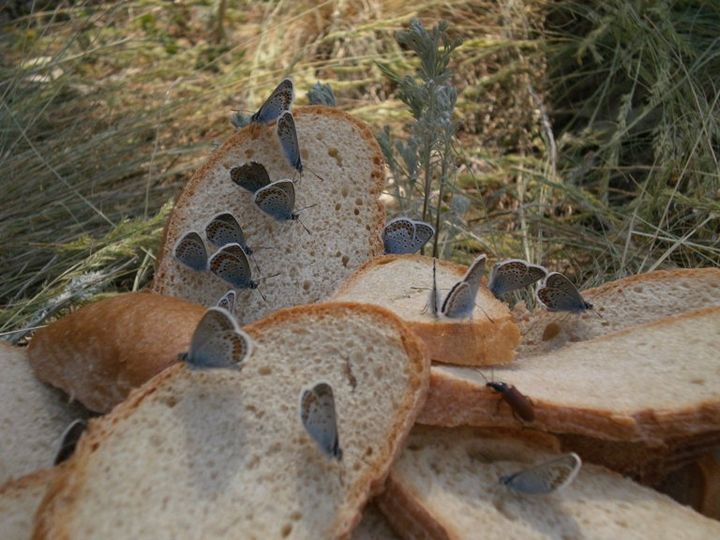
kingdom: Animalia
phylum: Arthropoda
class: Insecta
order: Lepidoptera
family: Lycaenidae
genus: Plebejus
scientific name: Plebejus argus
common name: Silver-studded blue
